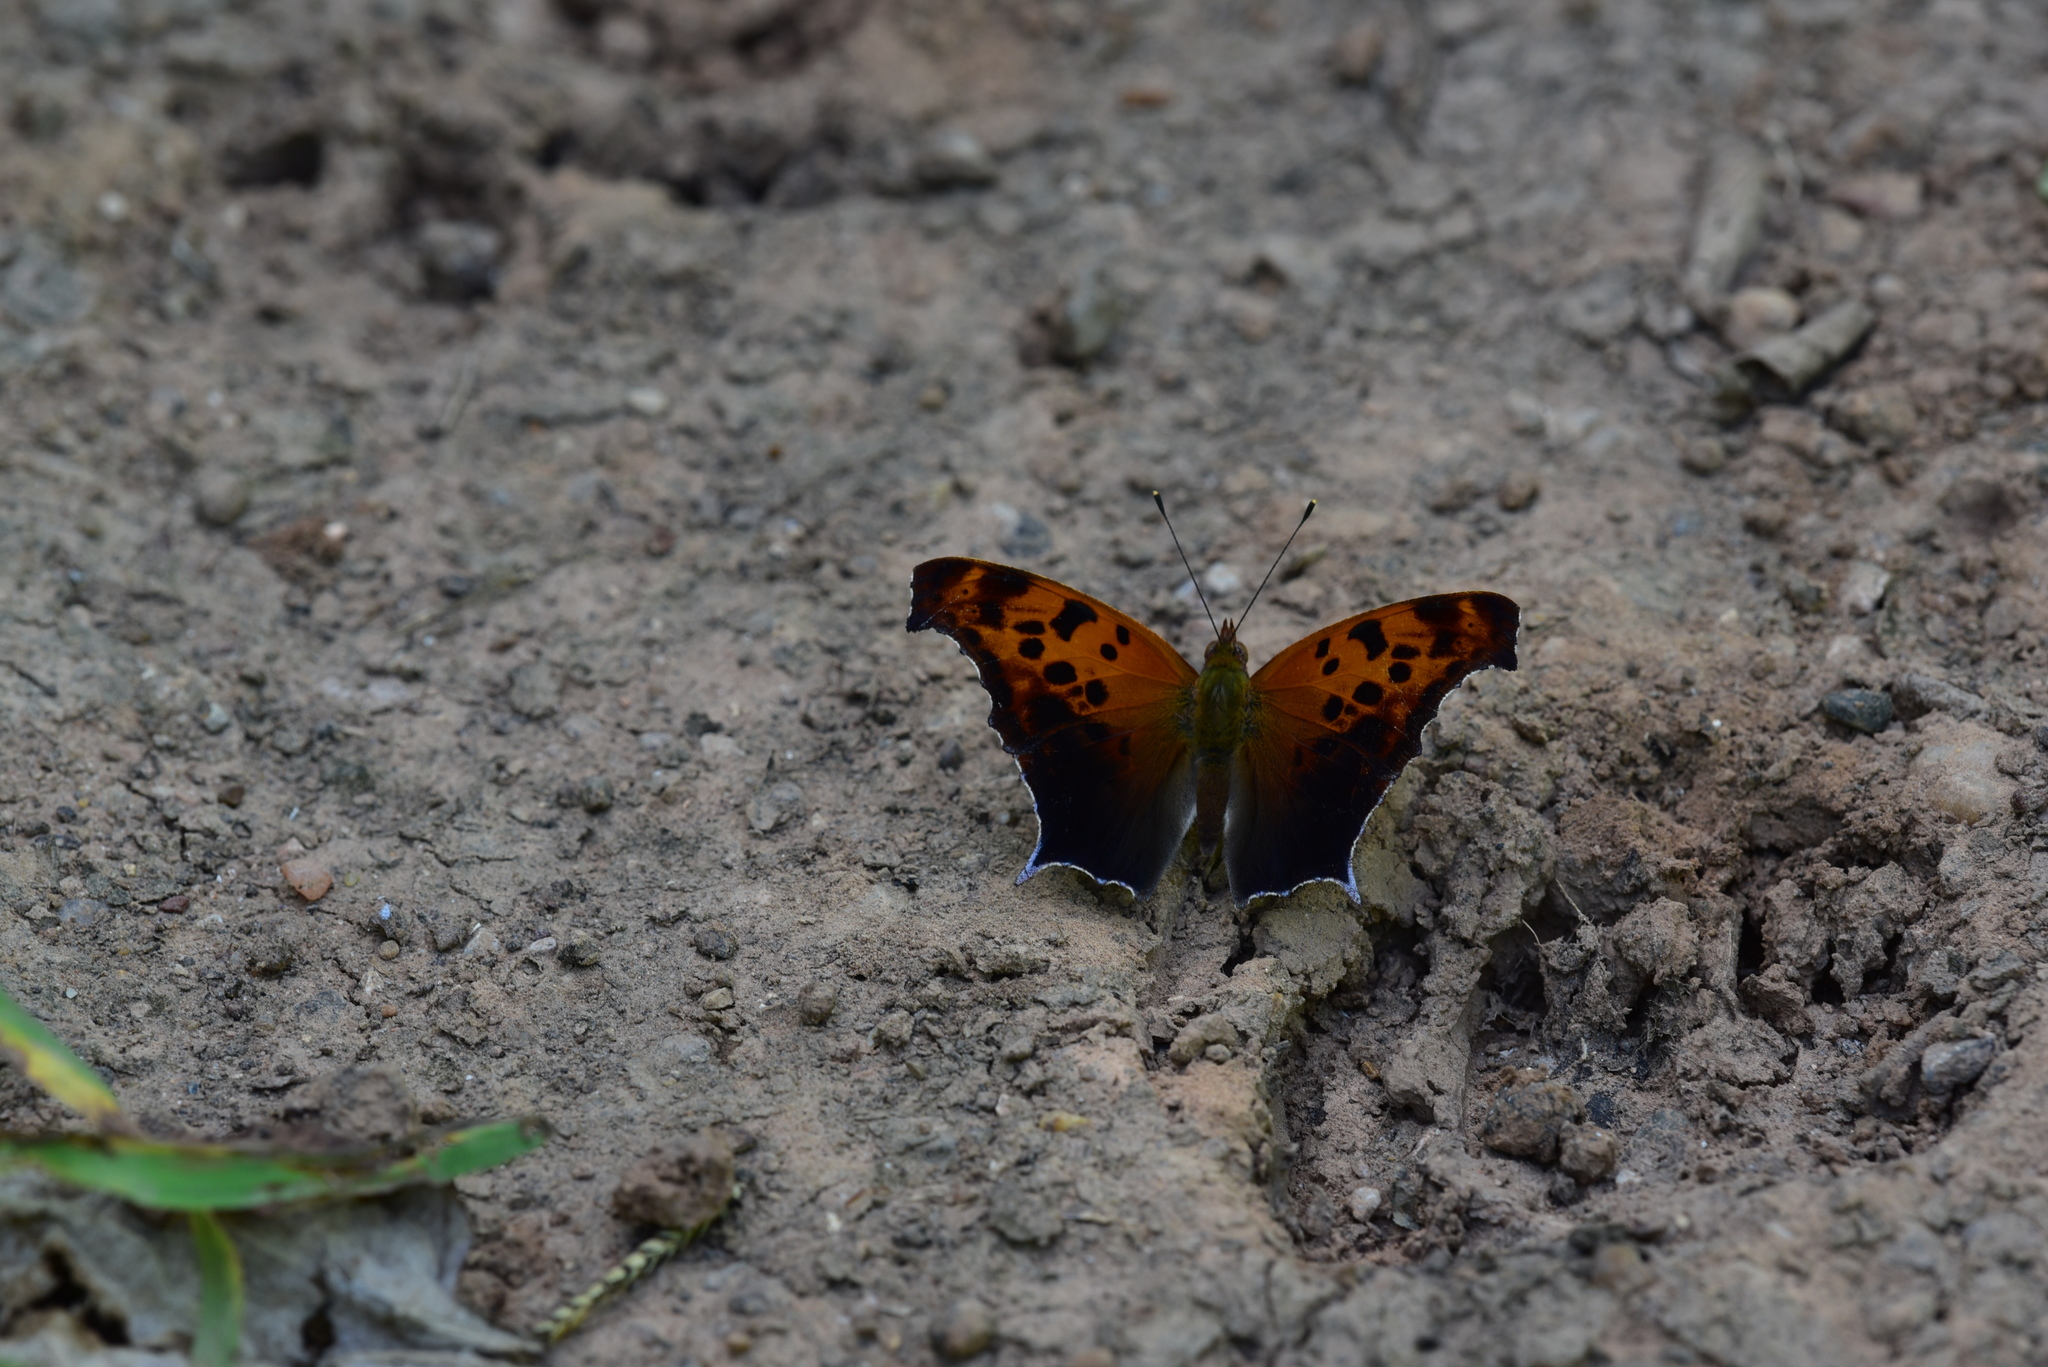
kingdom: Animalia
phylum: Arthropoda
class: Insecta
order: Lepidoptera
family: Nymphalidae
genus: Polygonia
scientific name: Polygonia interrogationis
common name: Question mark
